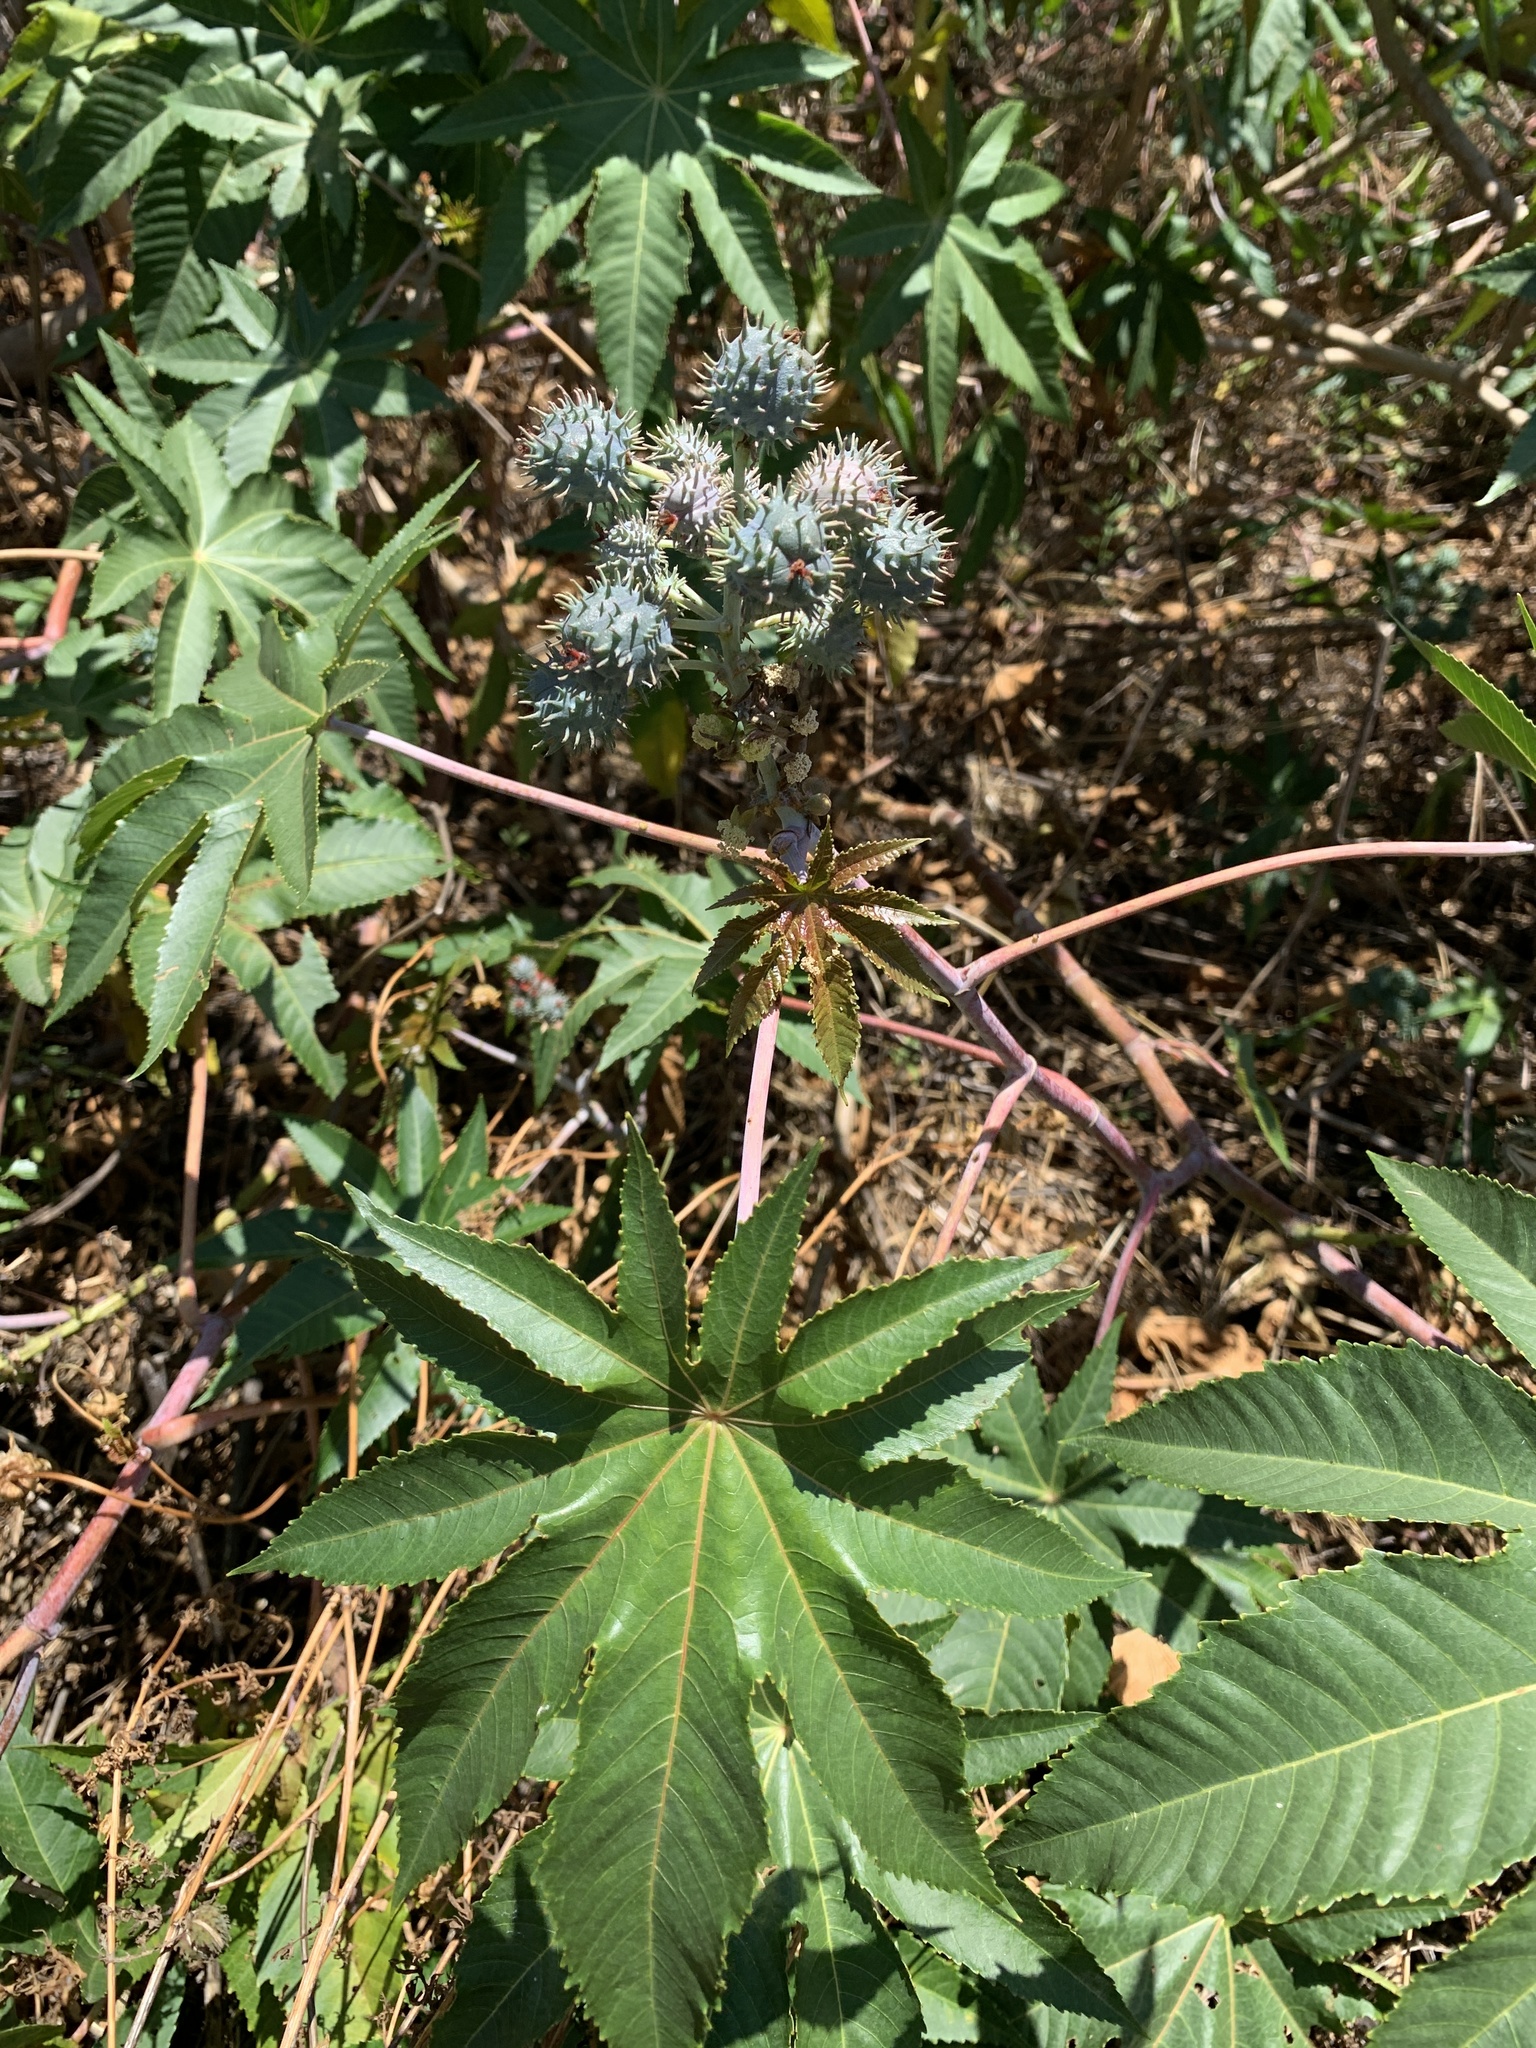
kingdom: Plantae
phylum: Tracheophyta
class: Magnoliopsida
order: Malpighiales
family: Euphorbiaceae
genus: Ricinus
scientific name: Ricinus communis
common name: Castor-oil-plant
